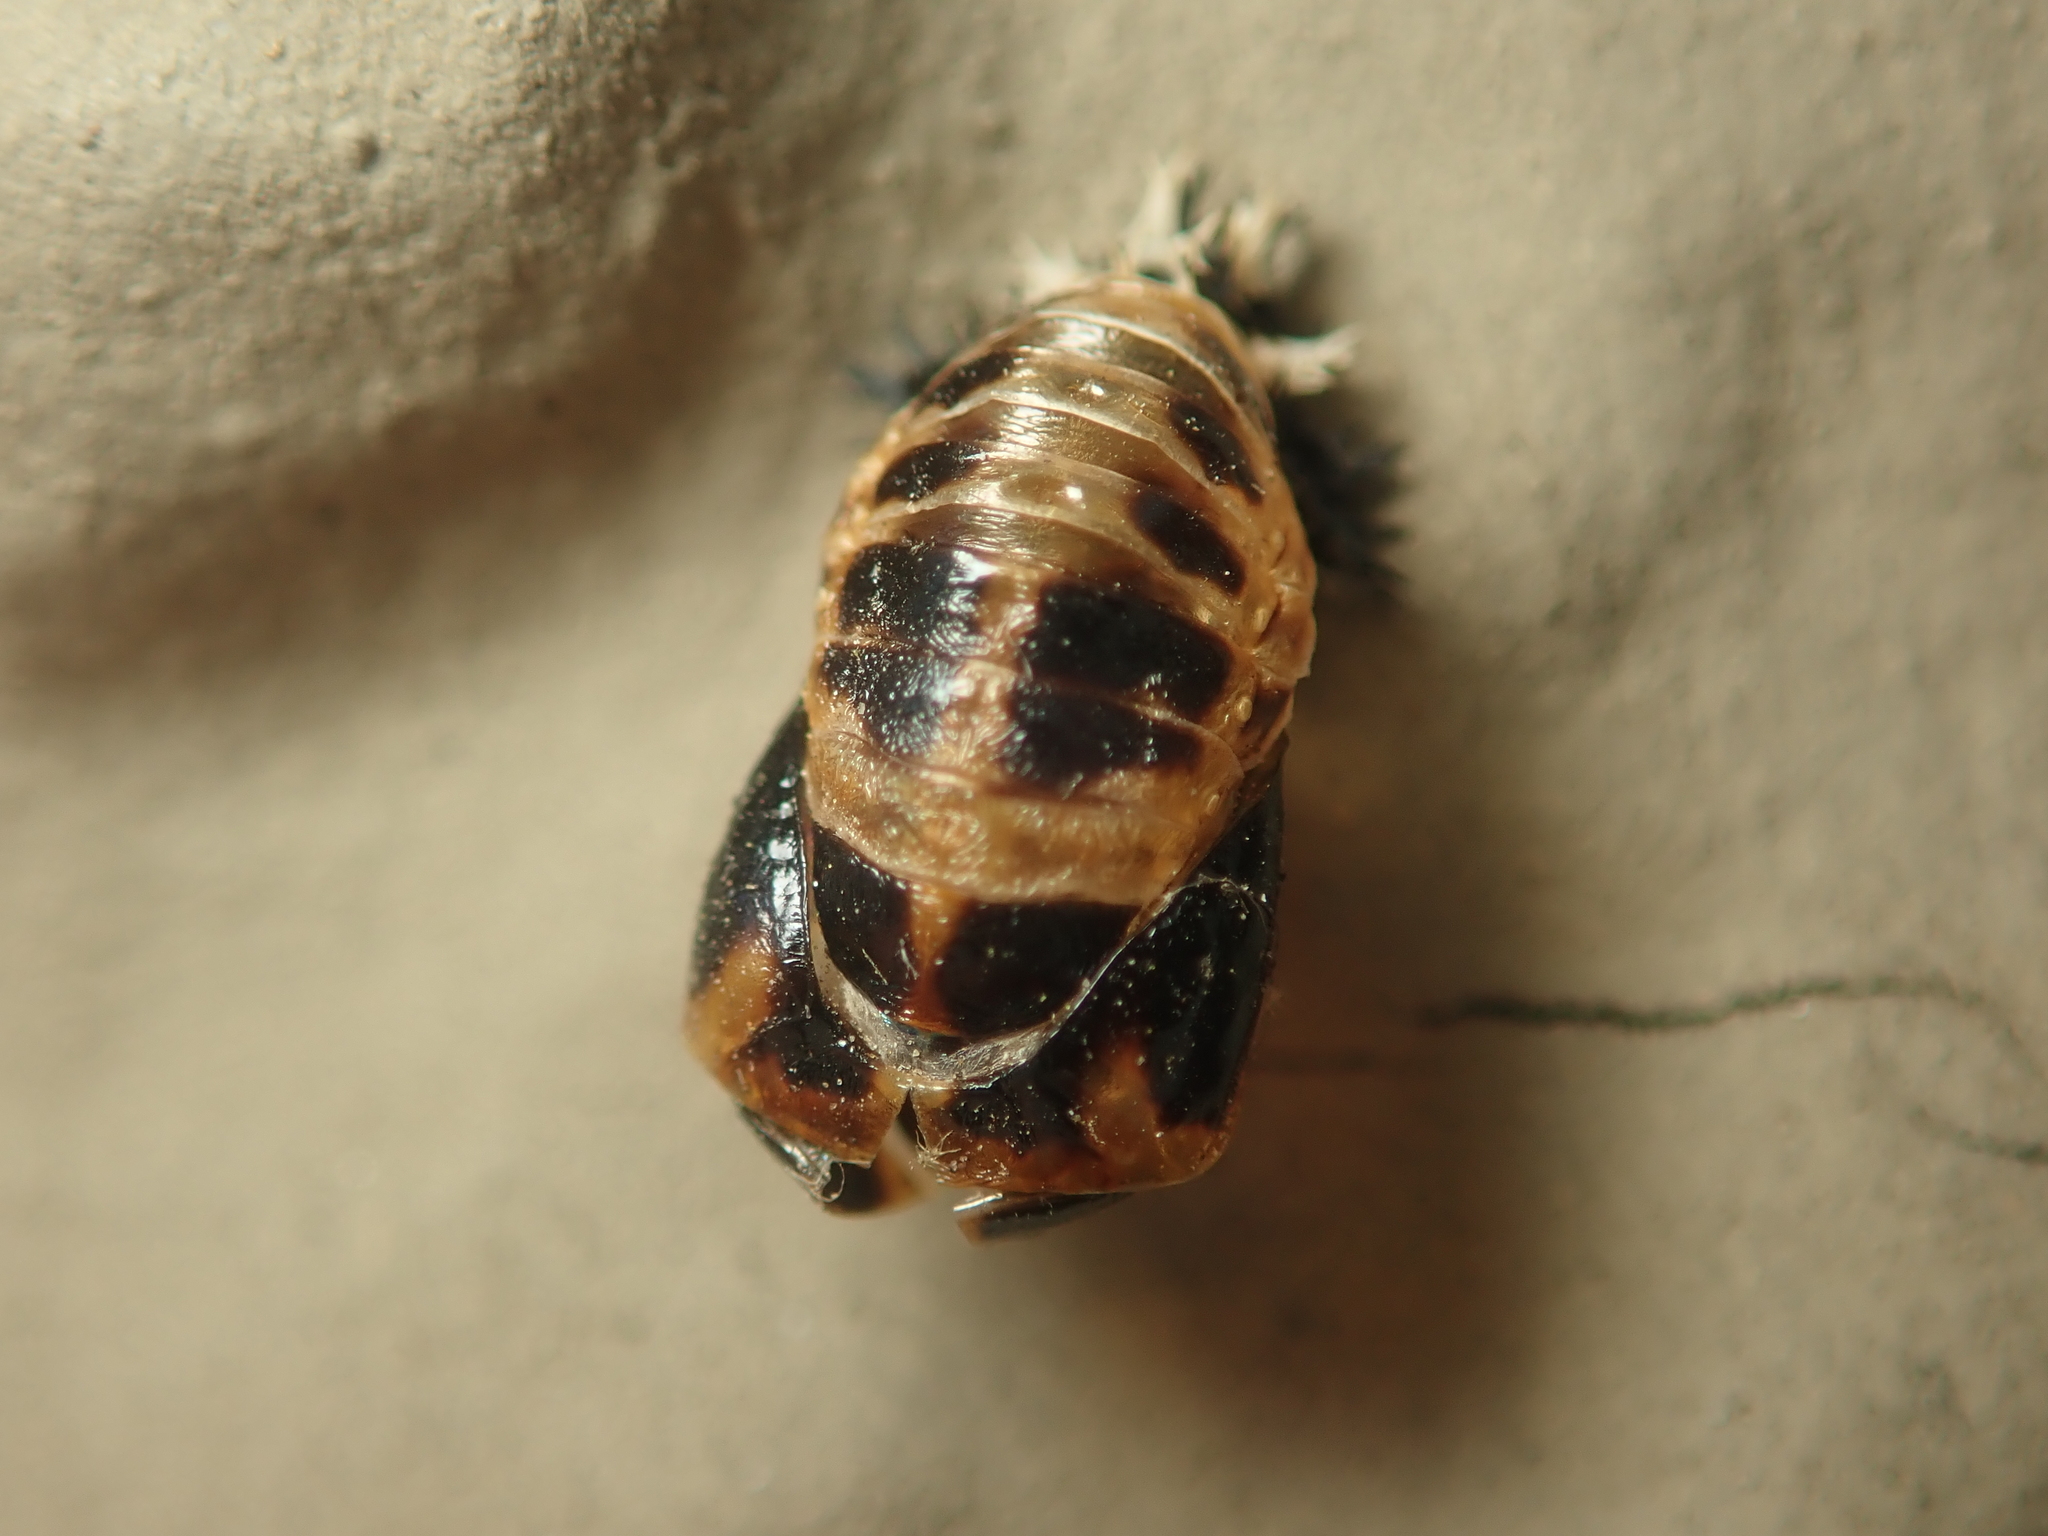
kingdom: Animalia
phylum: Arthropoda
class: Insecta
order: Coleoptera
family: Coccinellidae
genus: Harmonia
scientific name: Harmonia axyridis
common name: Harlequin ladybird
